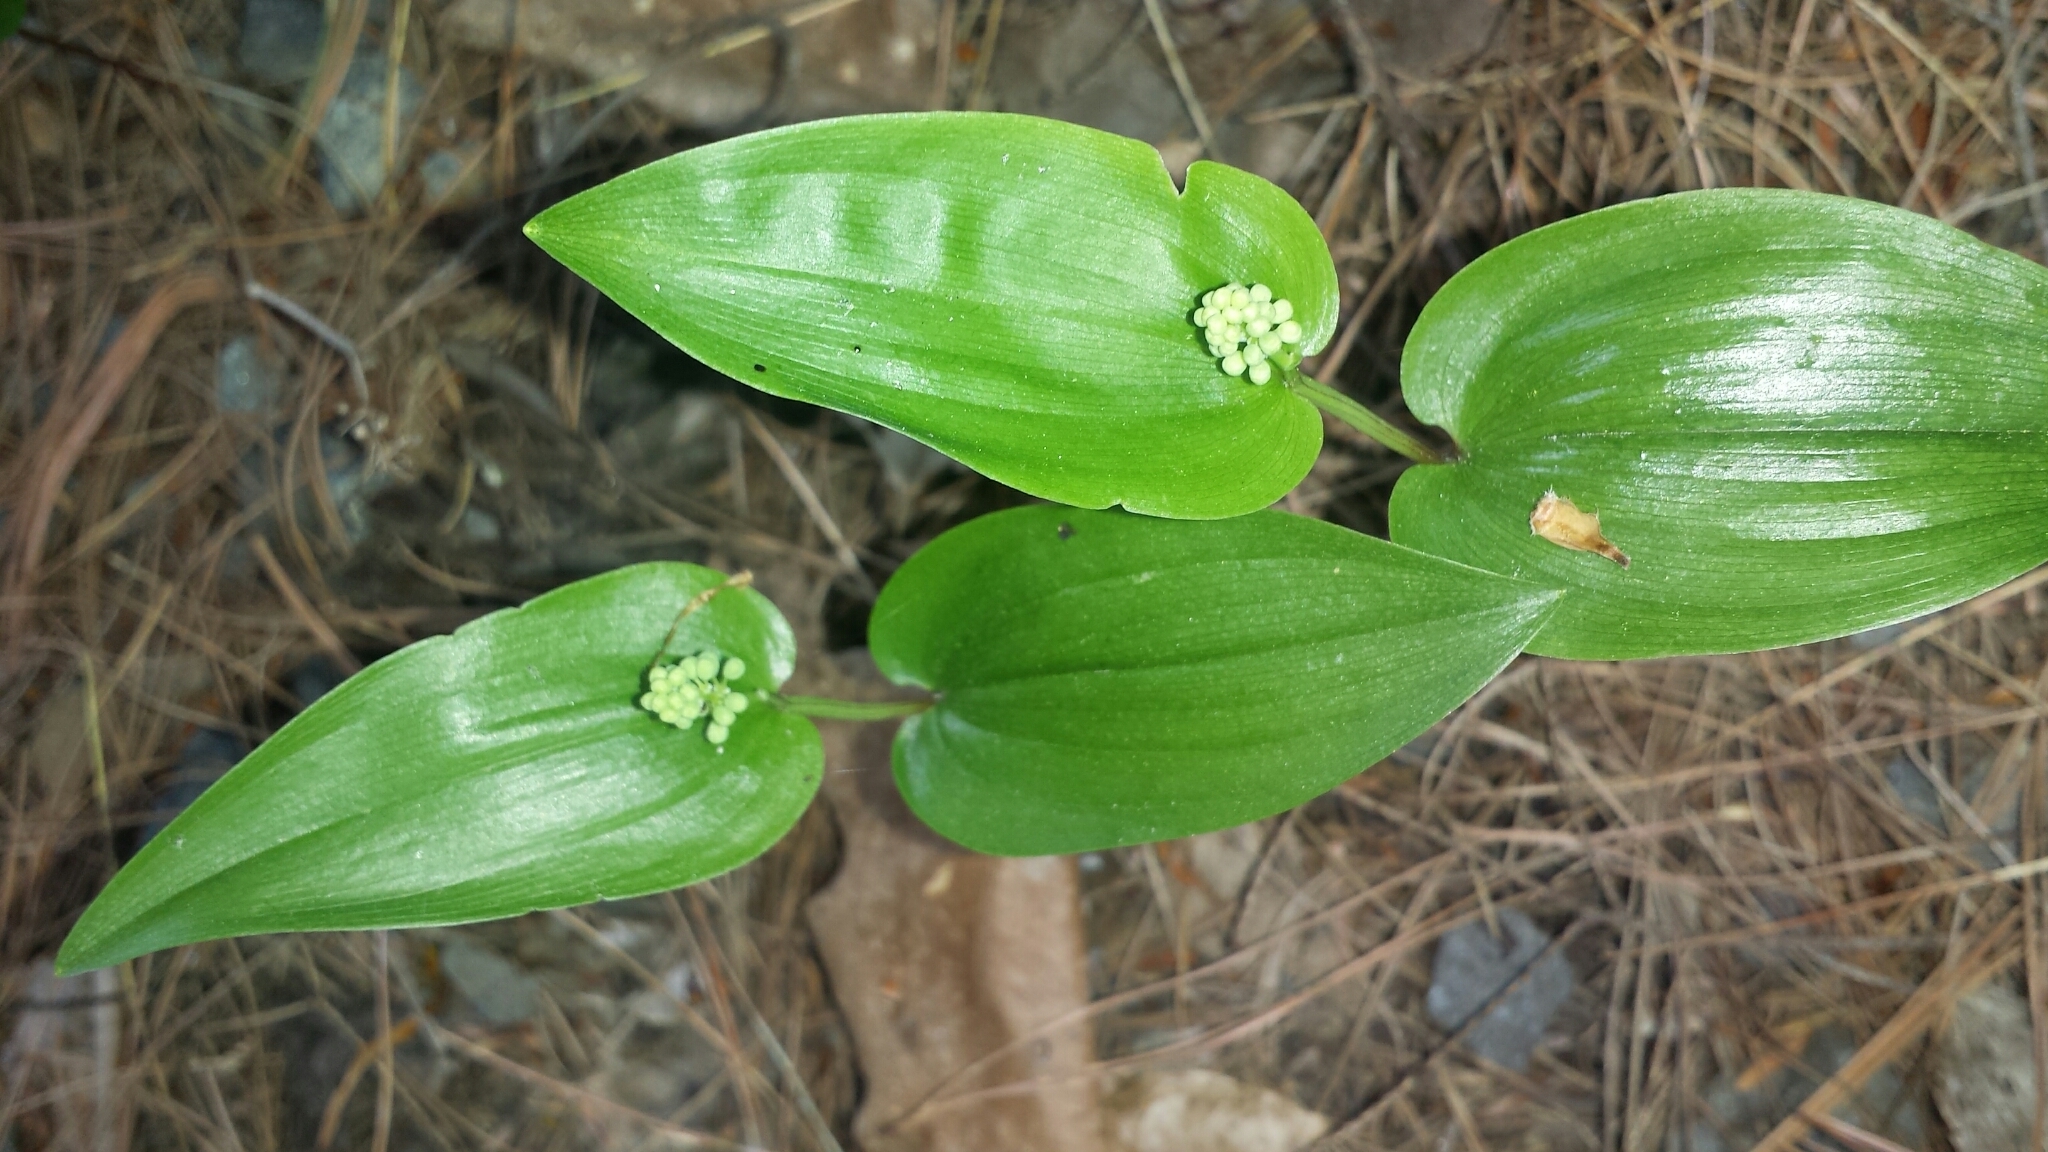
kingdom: Plantae
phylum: Tracheophyta
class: Liliopsida
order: Asparagales
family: Asparagaceae
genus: Maianthemum
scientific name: Maianthemum canadense
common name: False lily-of-the-valley
